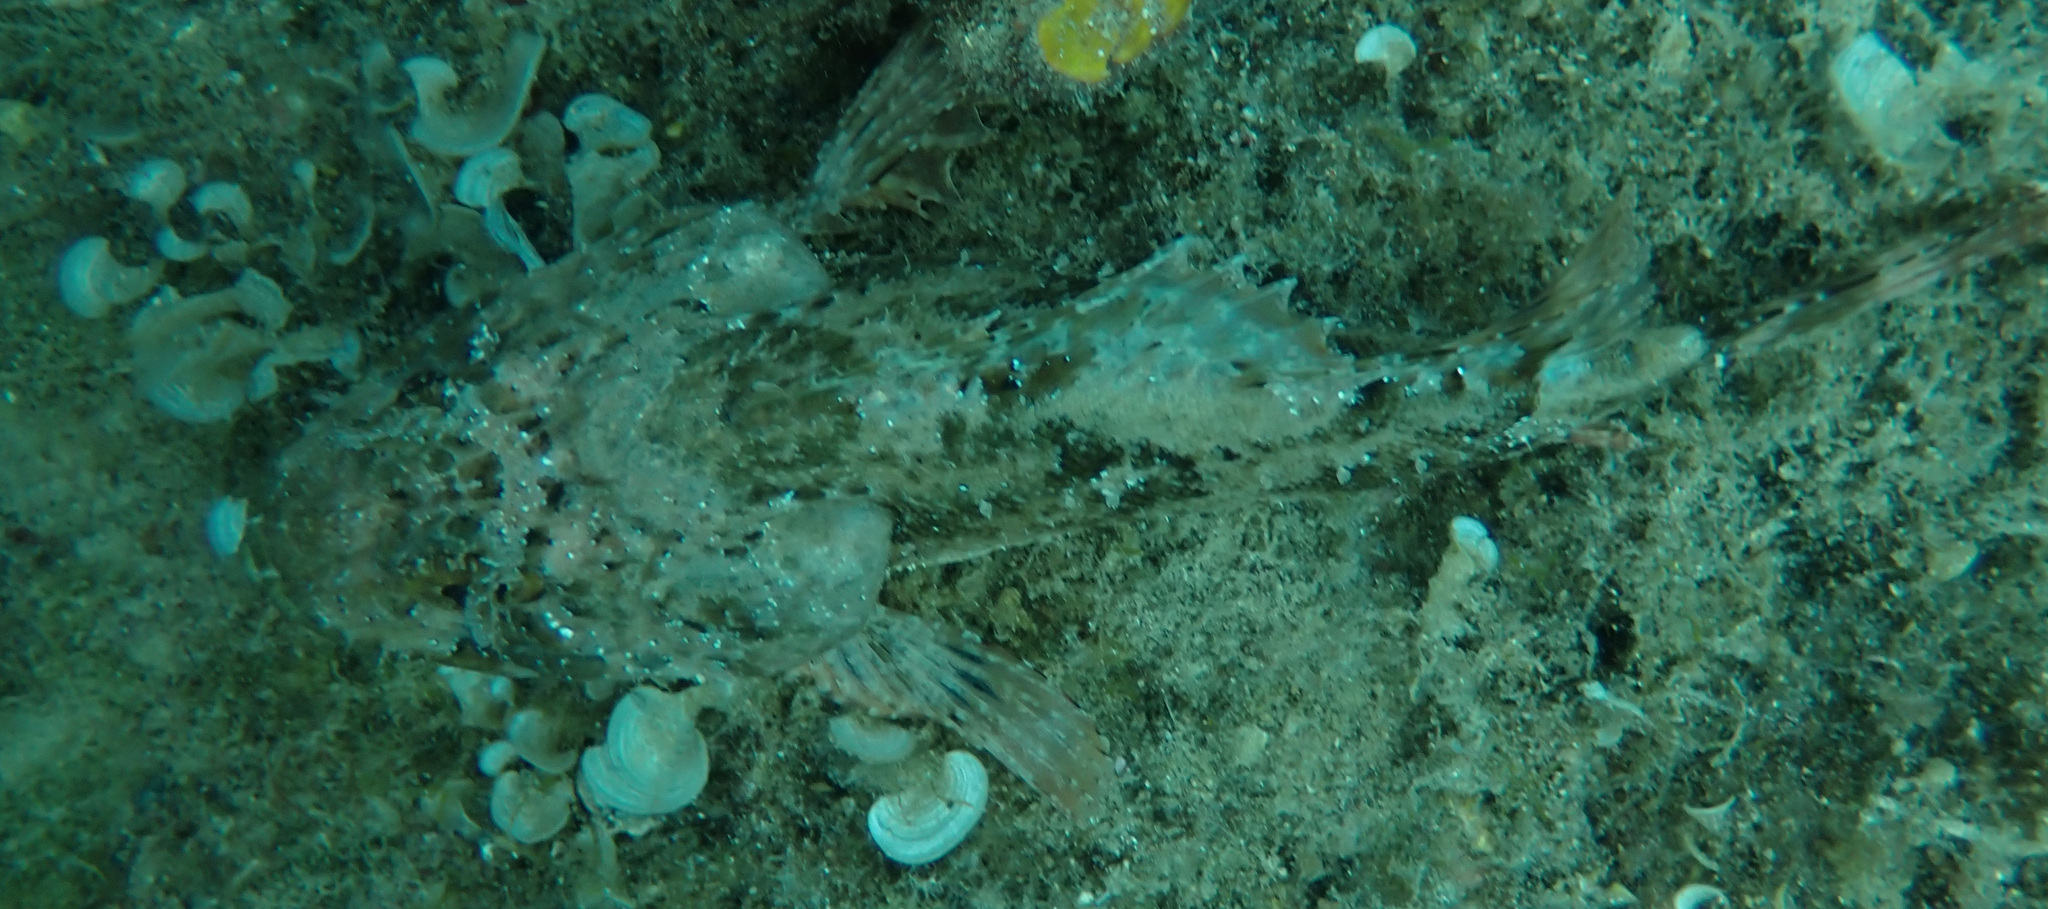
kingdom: Animalia
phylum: Chordata
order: Scorpaeniformes
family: Scorpaenidae
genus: Scorpaena
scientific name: Scorpaena porcus
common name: Black scorpionfish
